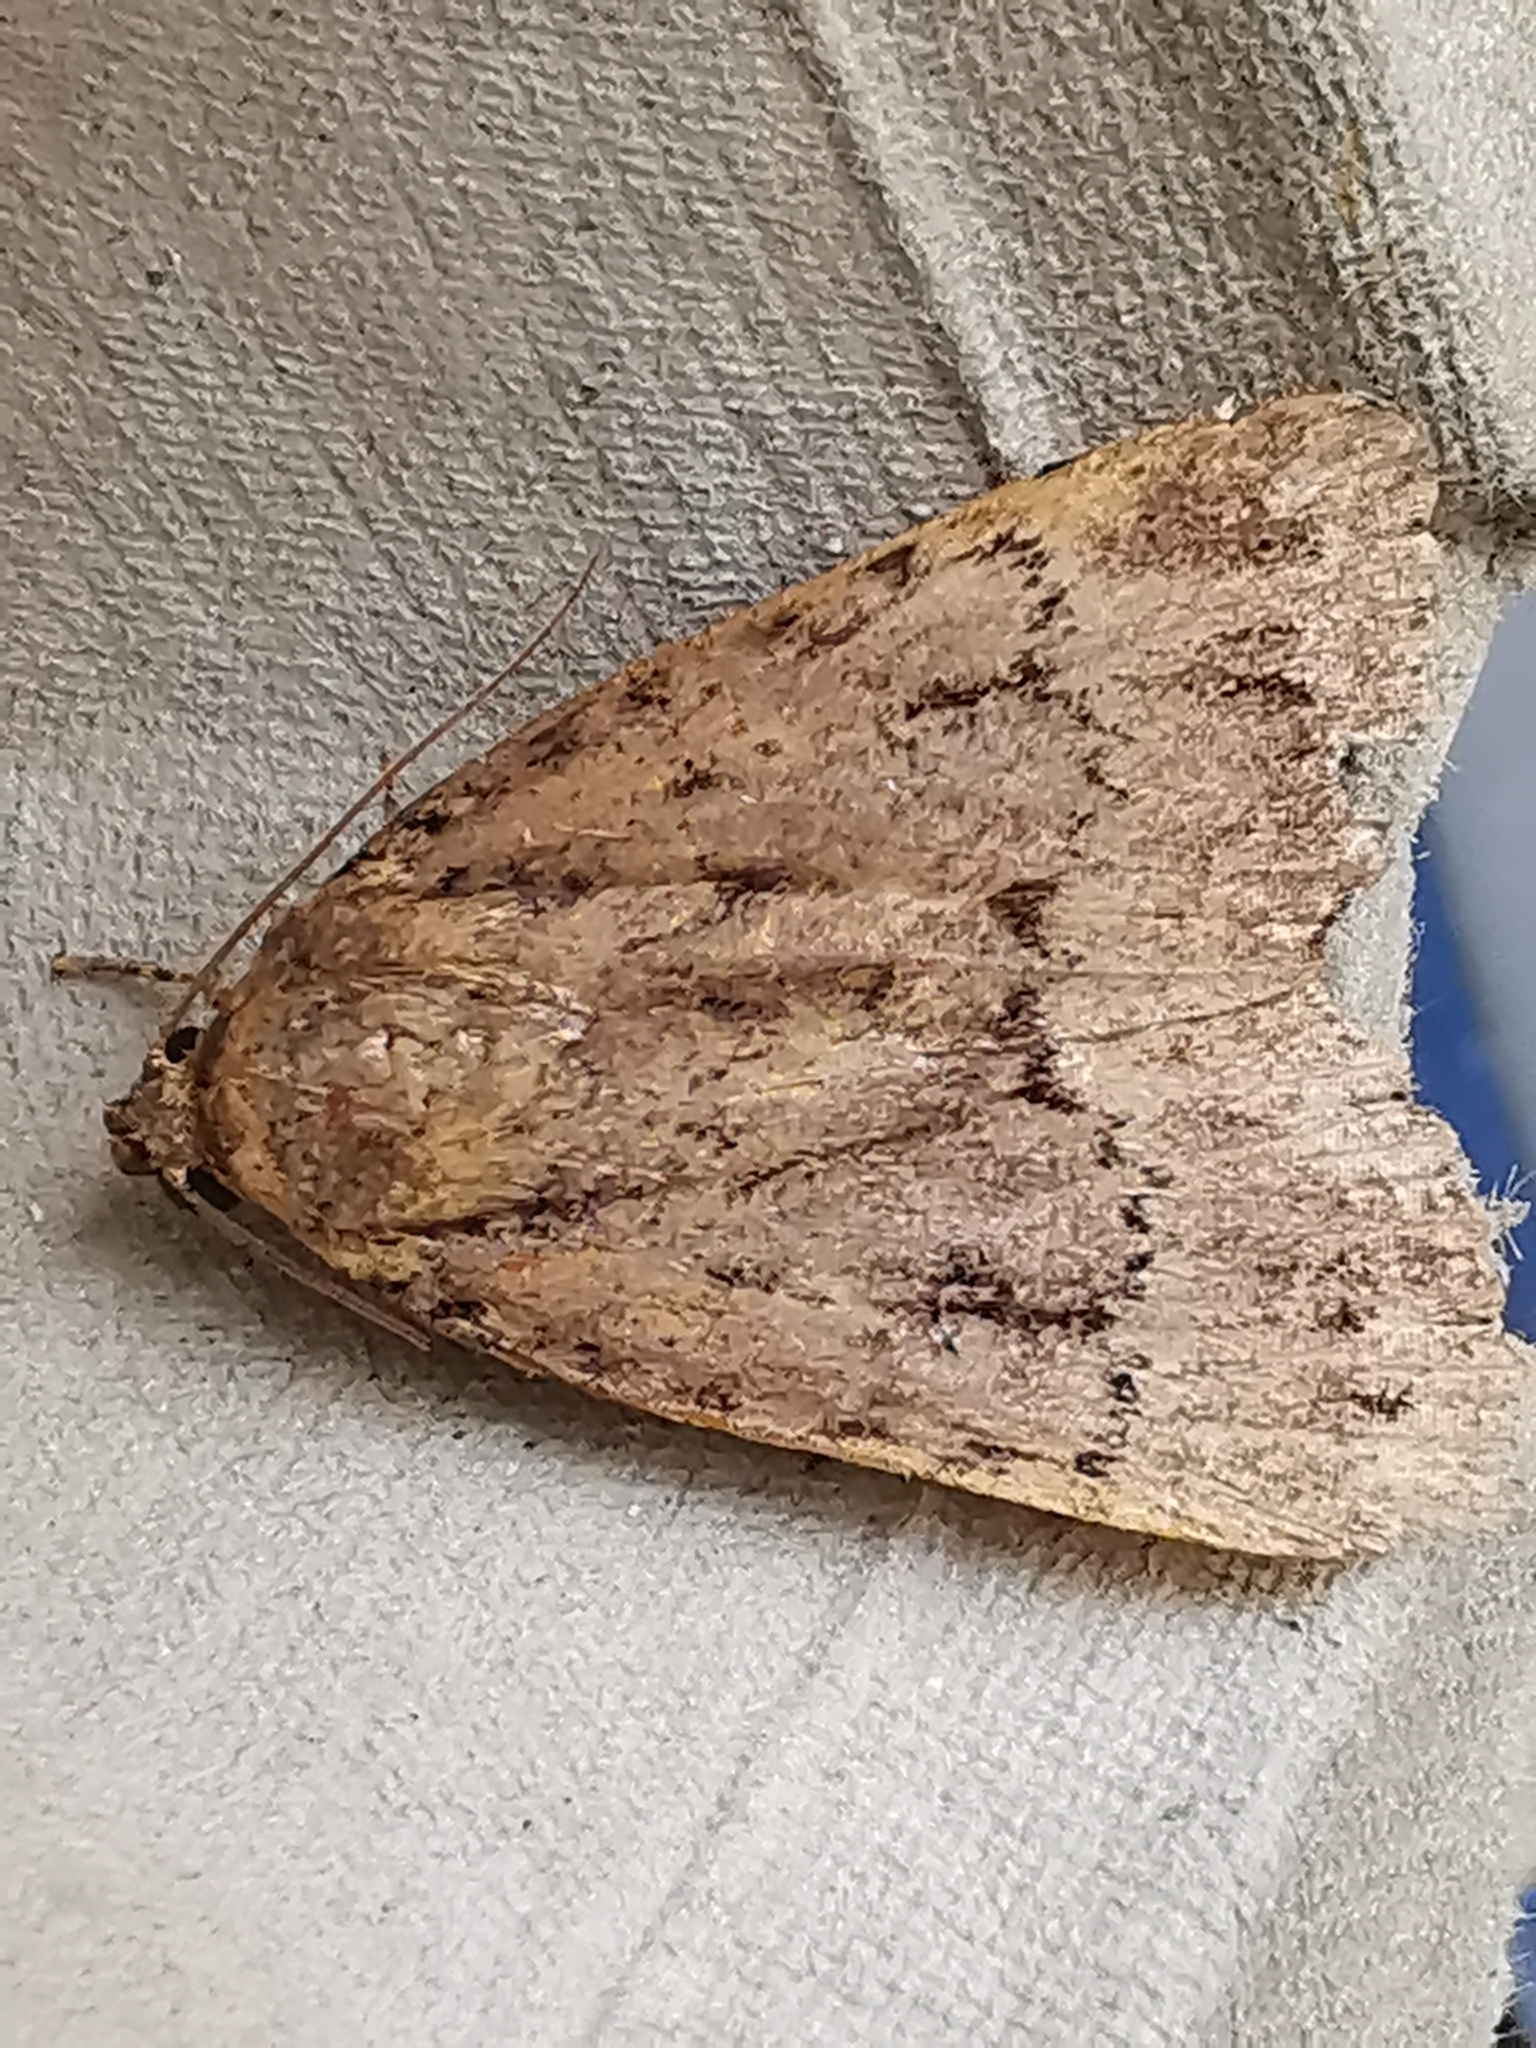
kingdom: Animalia
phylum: Arthropoda
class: Insecta
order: Lepidoptera
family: Noctuidae
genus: Amphipyra
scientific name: Amphipyra pyramidea
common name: Copper underwing
